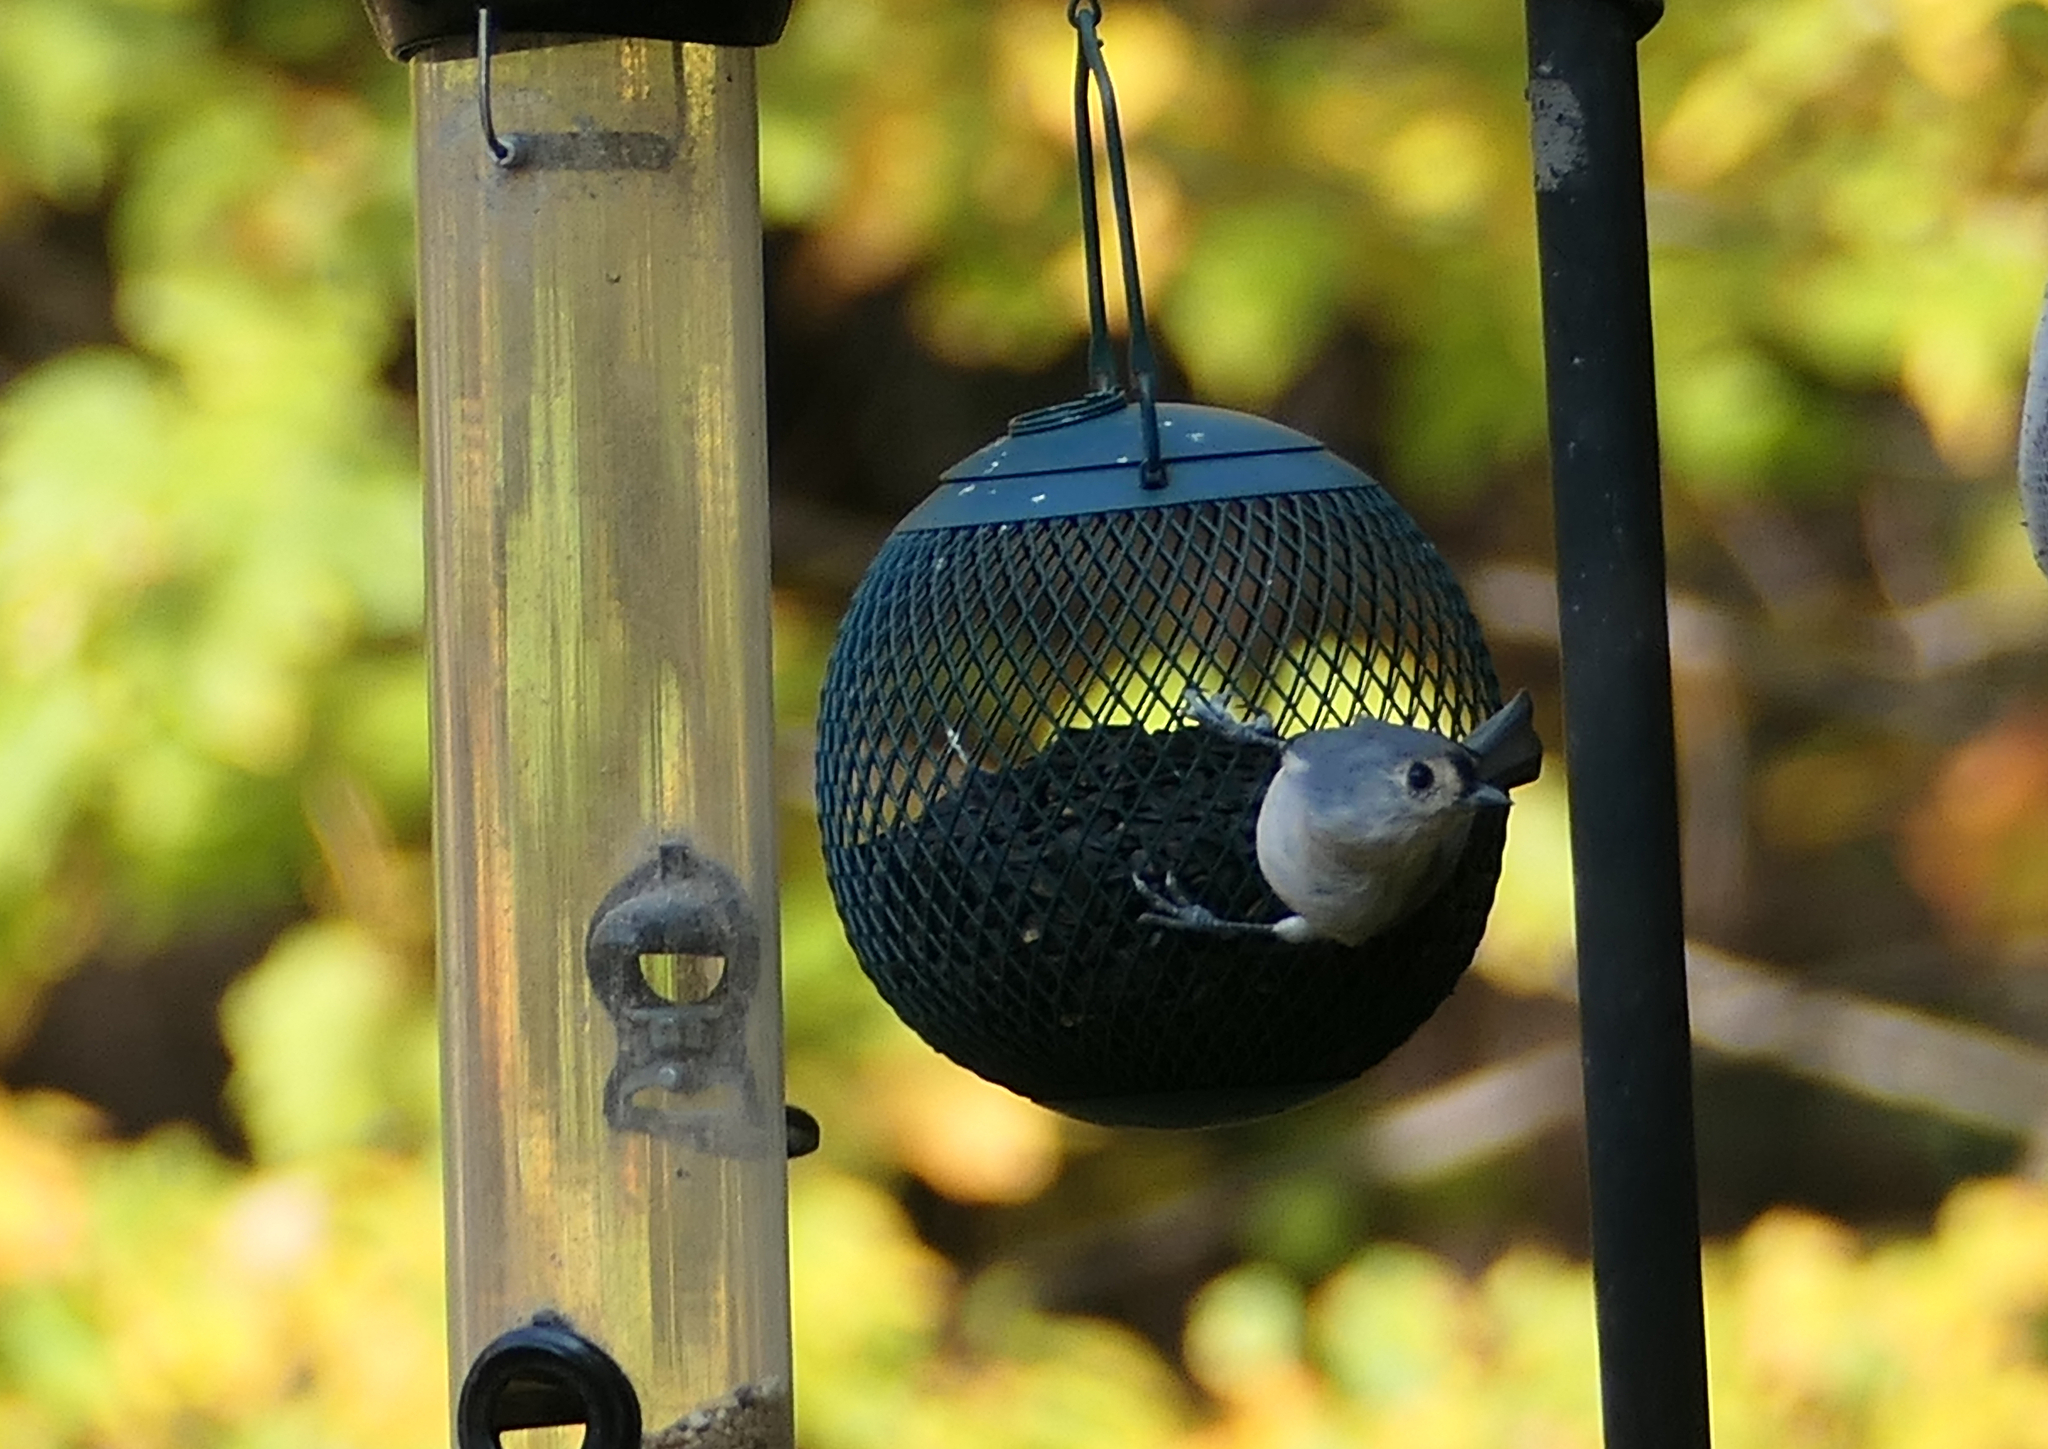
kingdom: Animalia
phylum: Chordata
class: Aves
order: Passeriformes
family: Paridae
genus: Baeolophus
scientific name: Baeolophus bicolor
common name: Tufted titmouse
